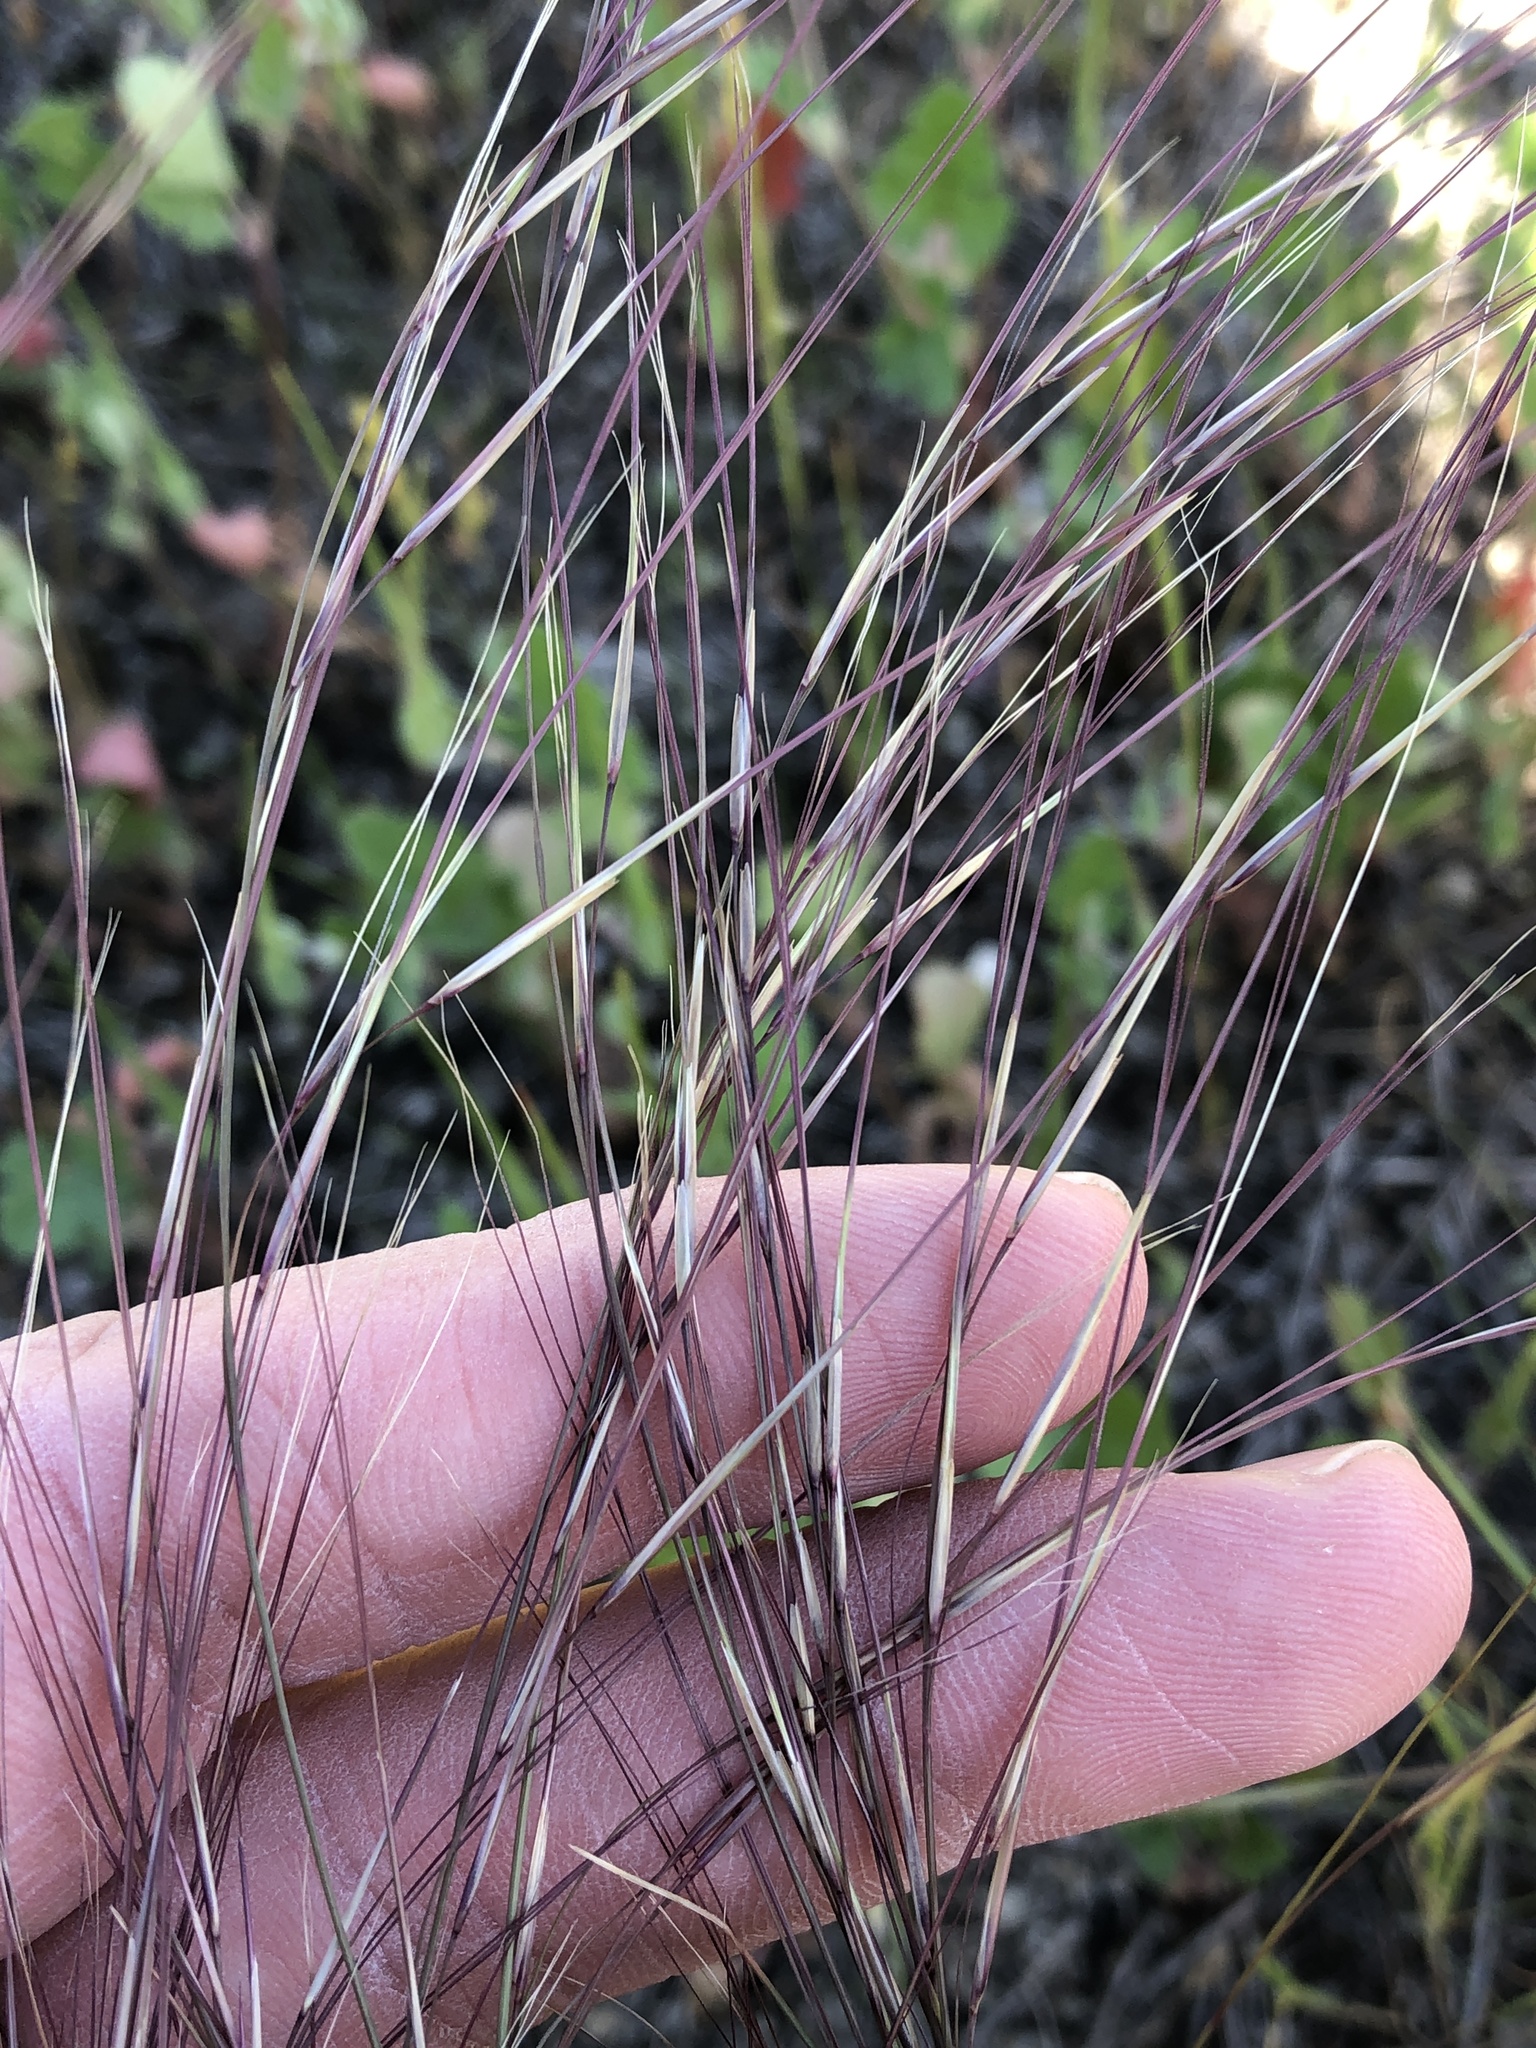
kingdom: Plantae
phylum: Tracheophyta
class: Liliopsida
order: Poales
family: Poaceae
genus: Aristida
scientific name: Aristida purpurea
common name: Purple threeawn
